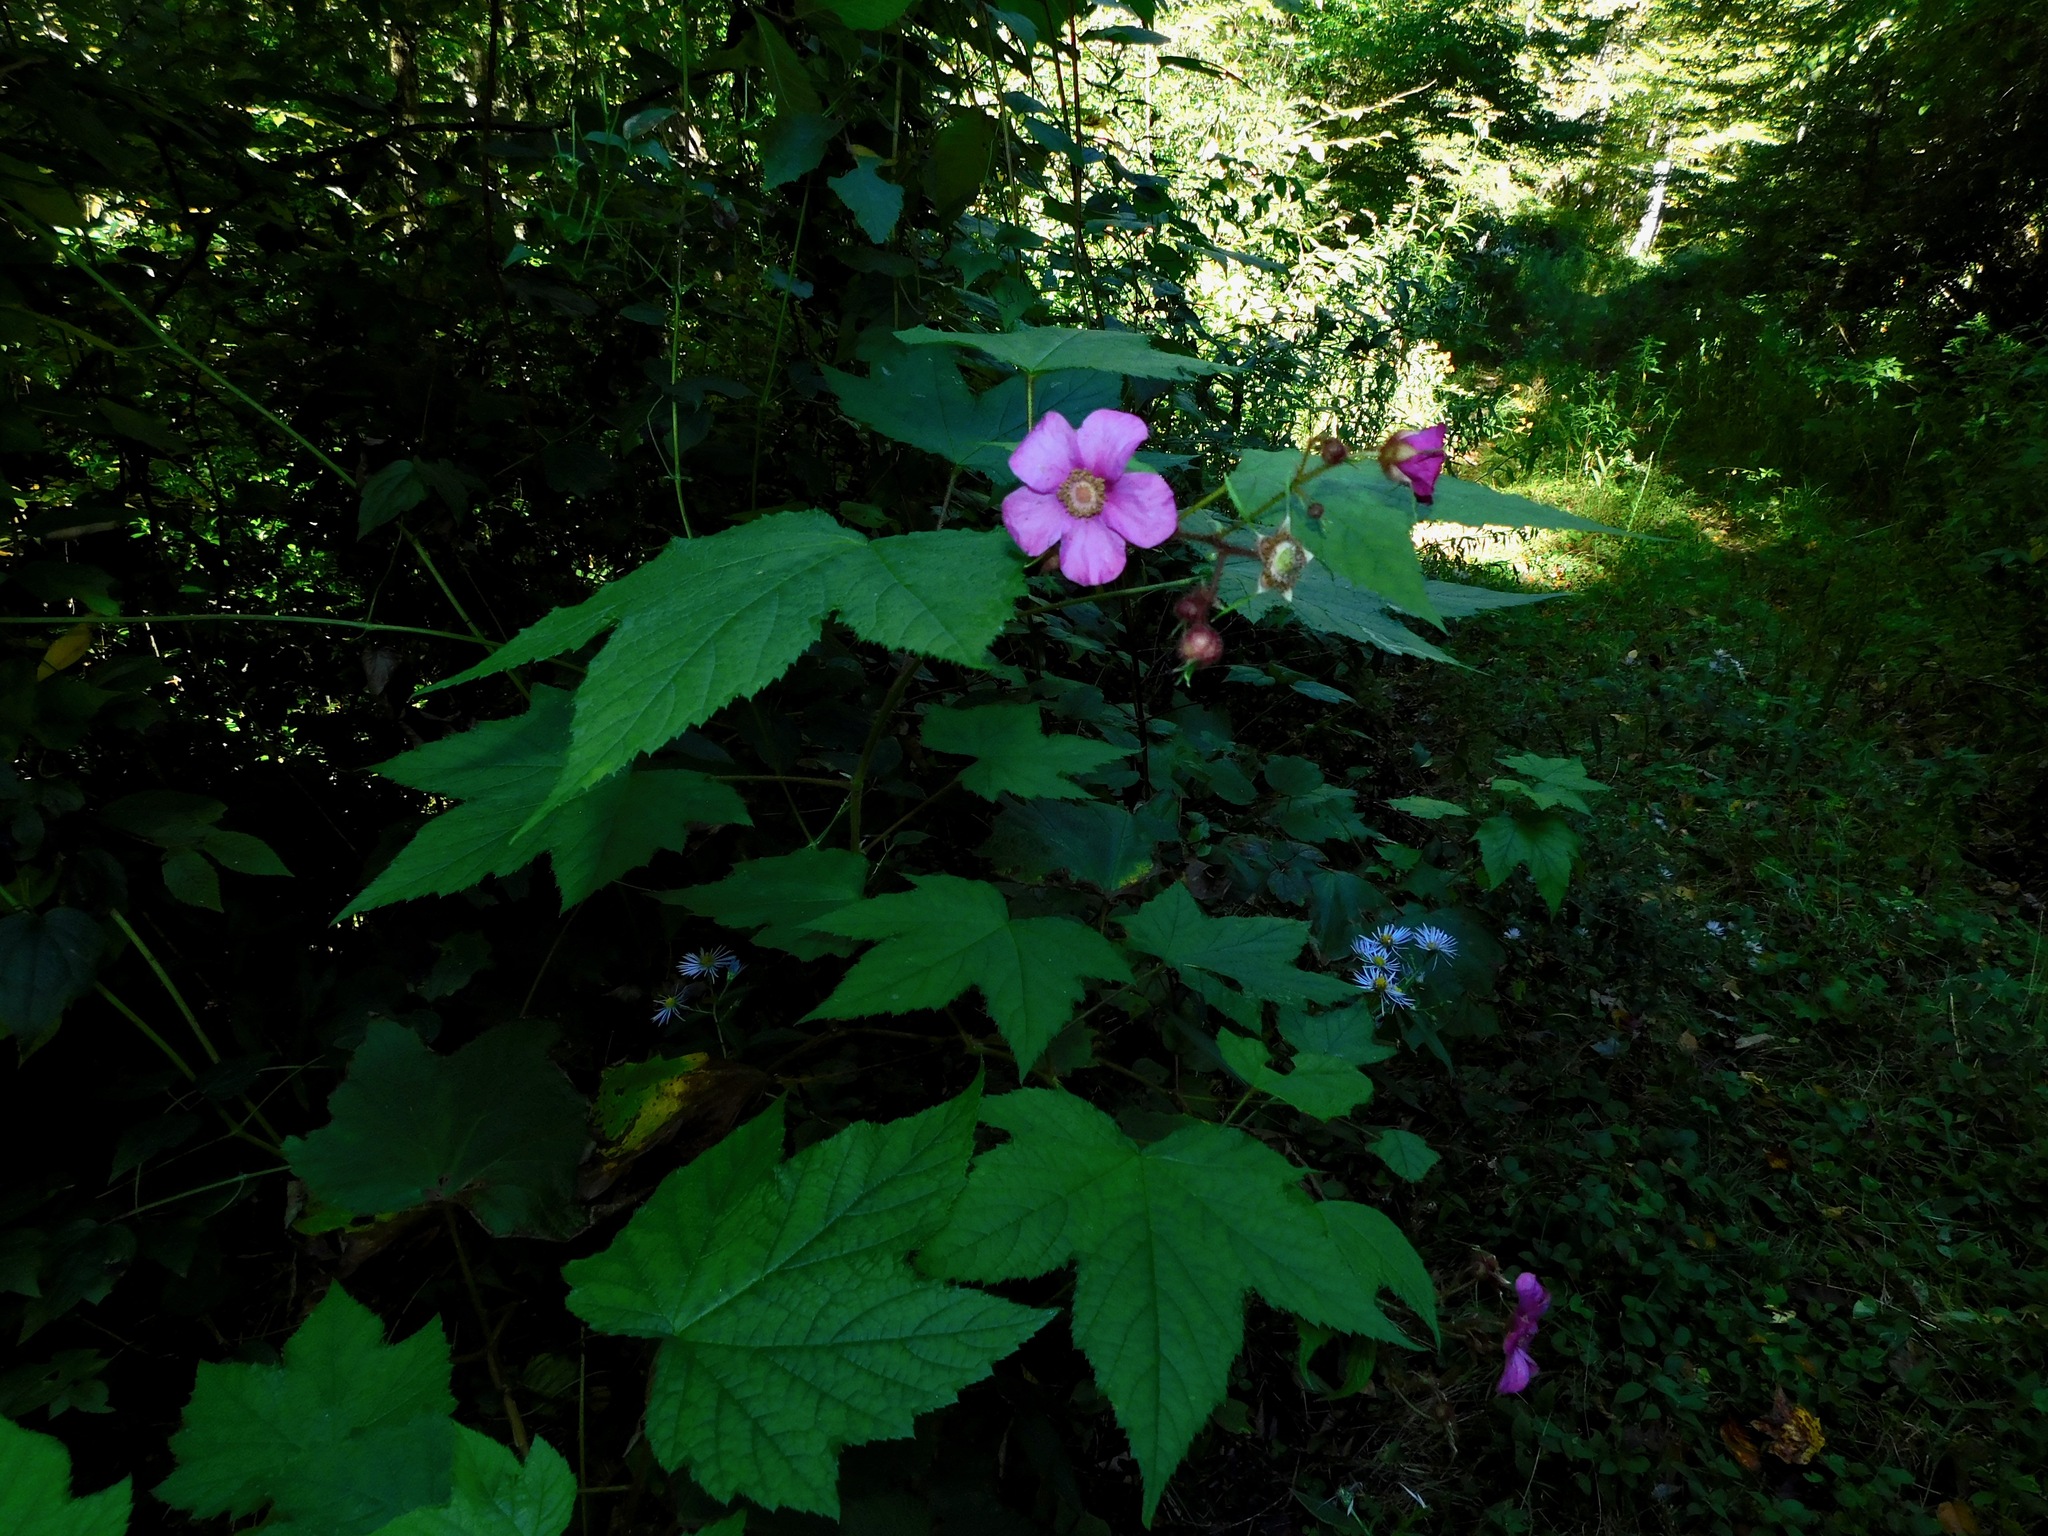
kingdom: Plantae
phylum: Tracheophyta
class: Magnoliopsida
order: Rosales
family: Rosaceae
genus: Rubus
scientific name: Rubus odoratus
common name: Purple-flowered raspberry
